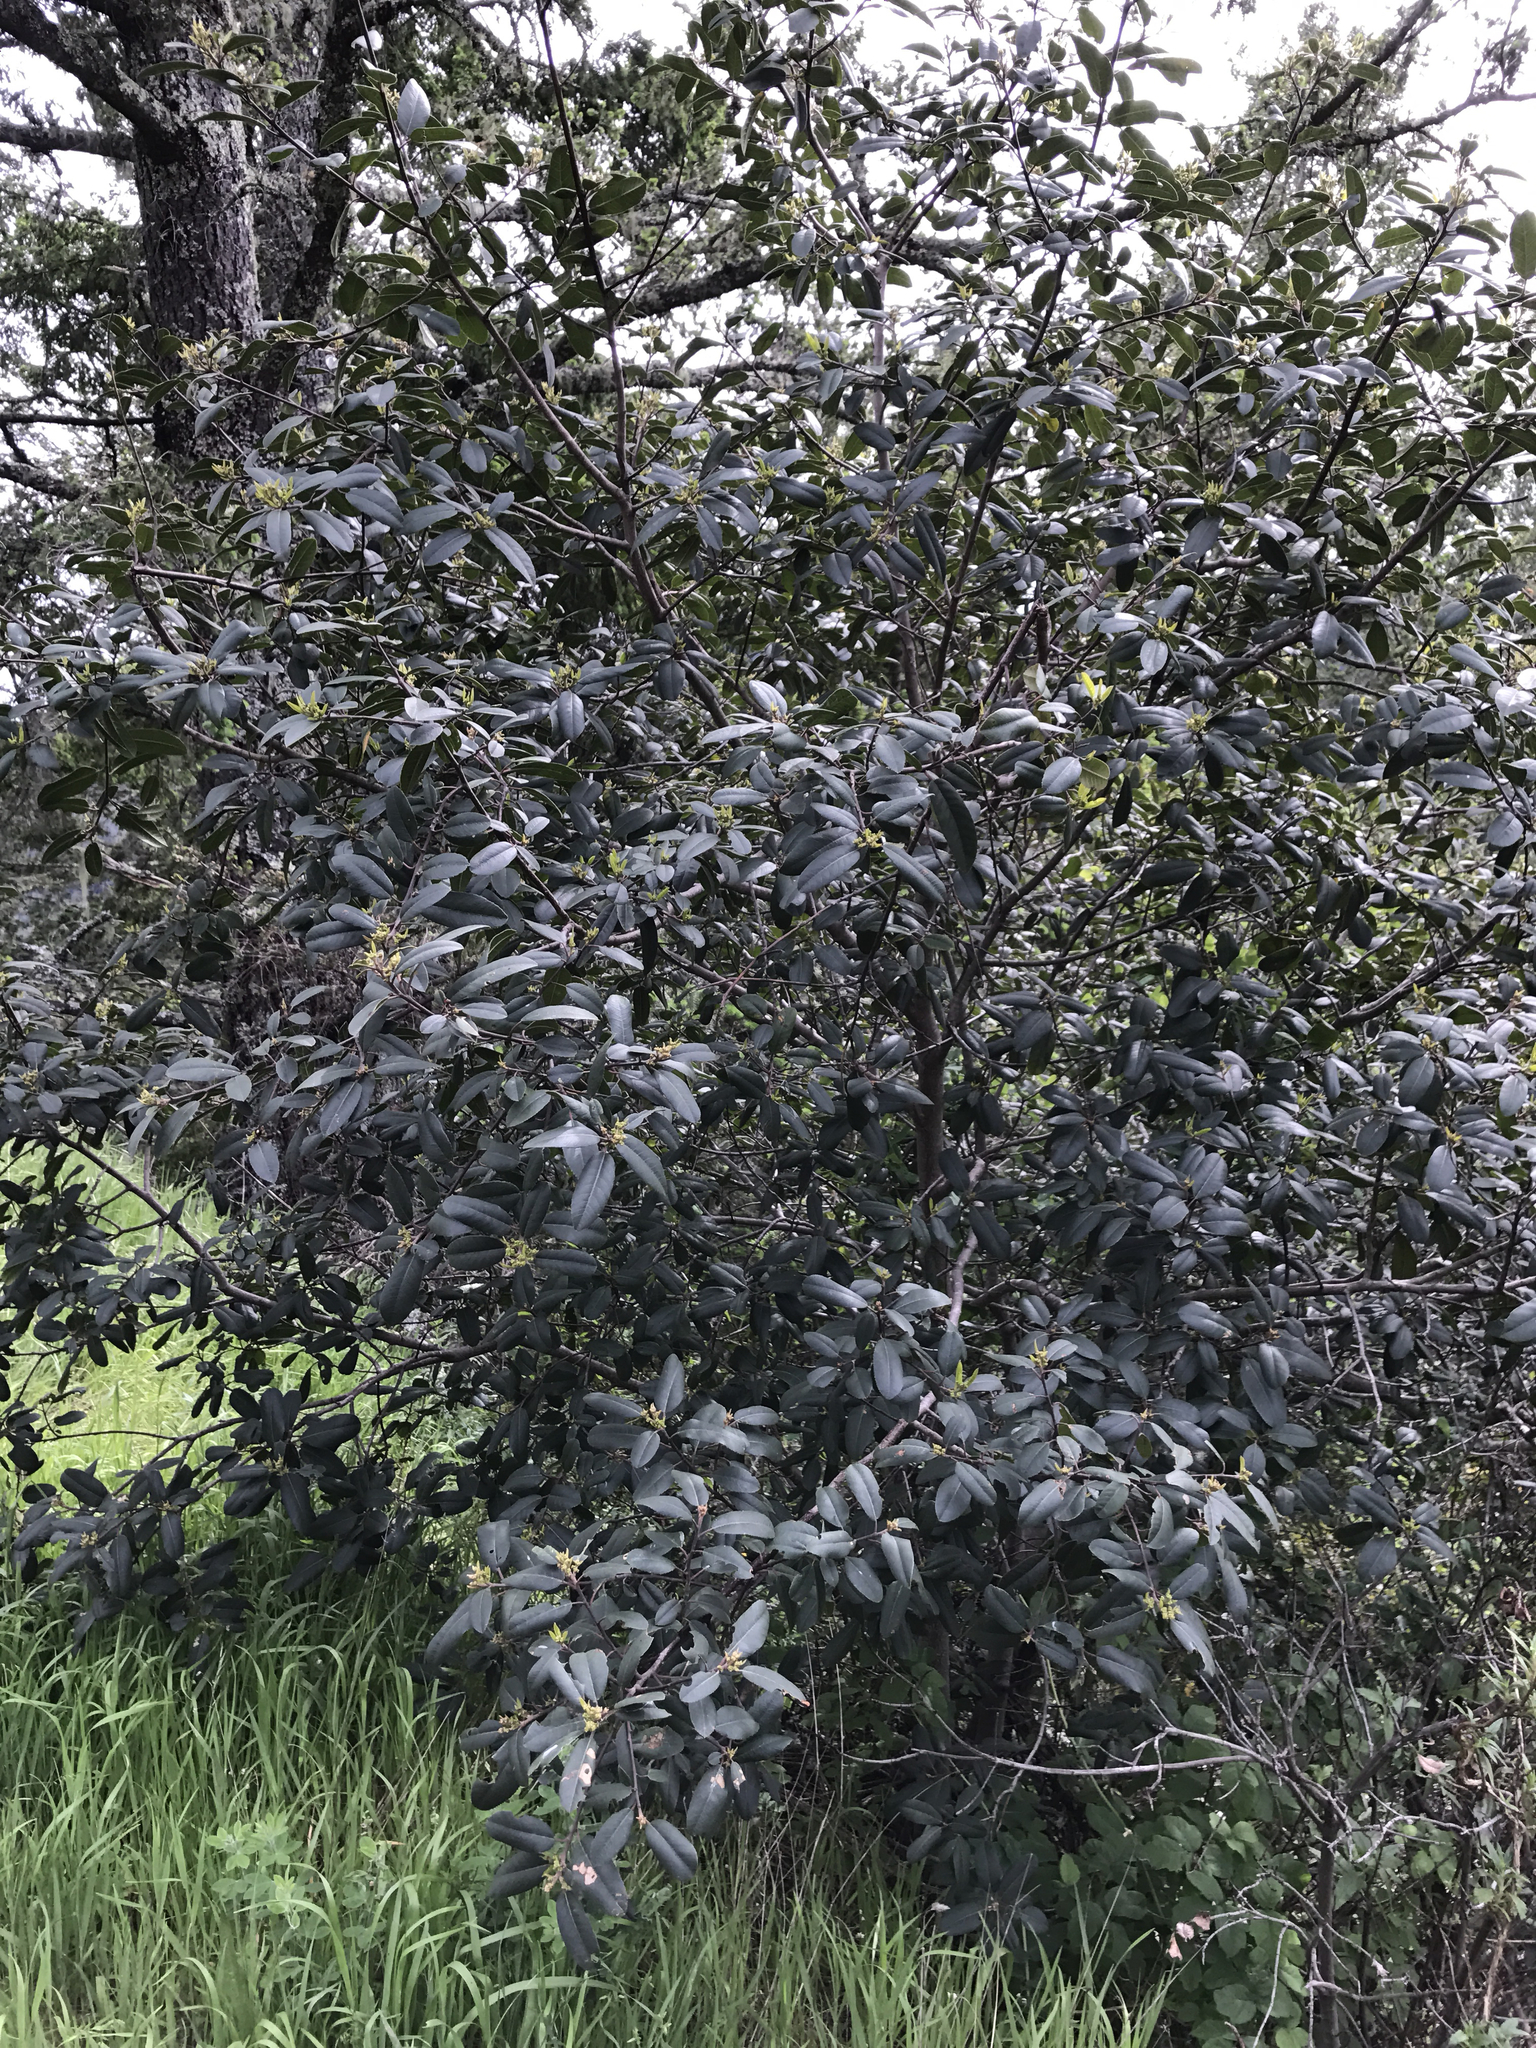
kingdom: Plantae
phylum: Tracheophyta
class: Magnoliopsida
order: Rosales
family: Rhamnaceae
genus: Frangula
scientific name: Frangula californica
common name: California buckthorn
